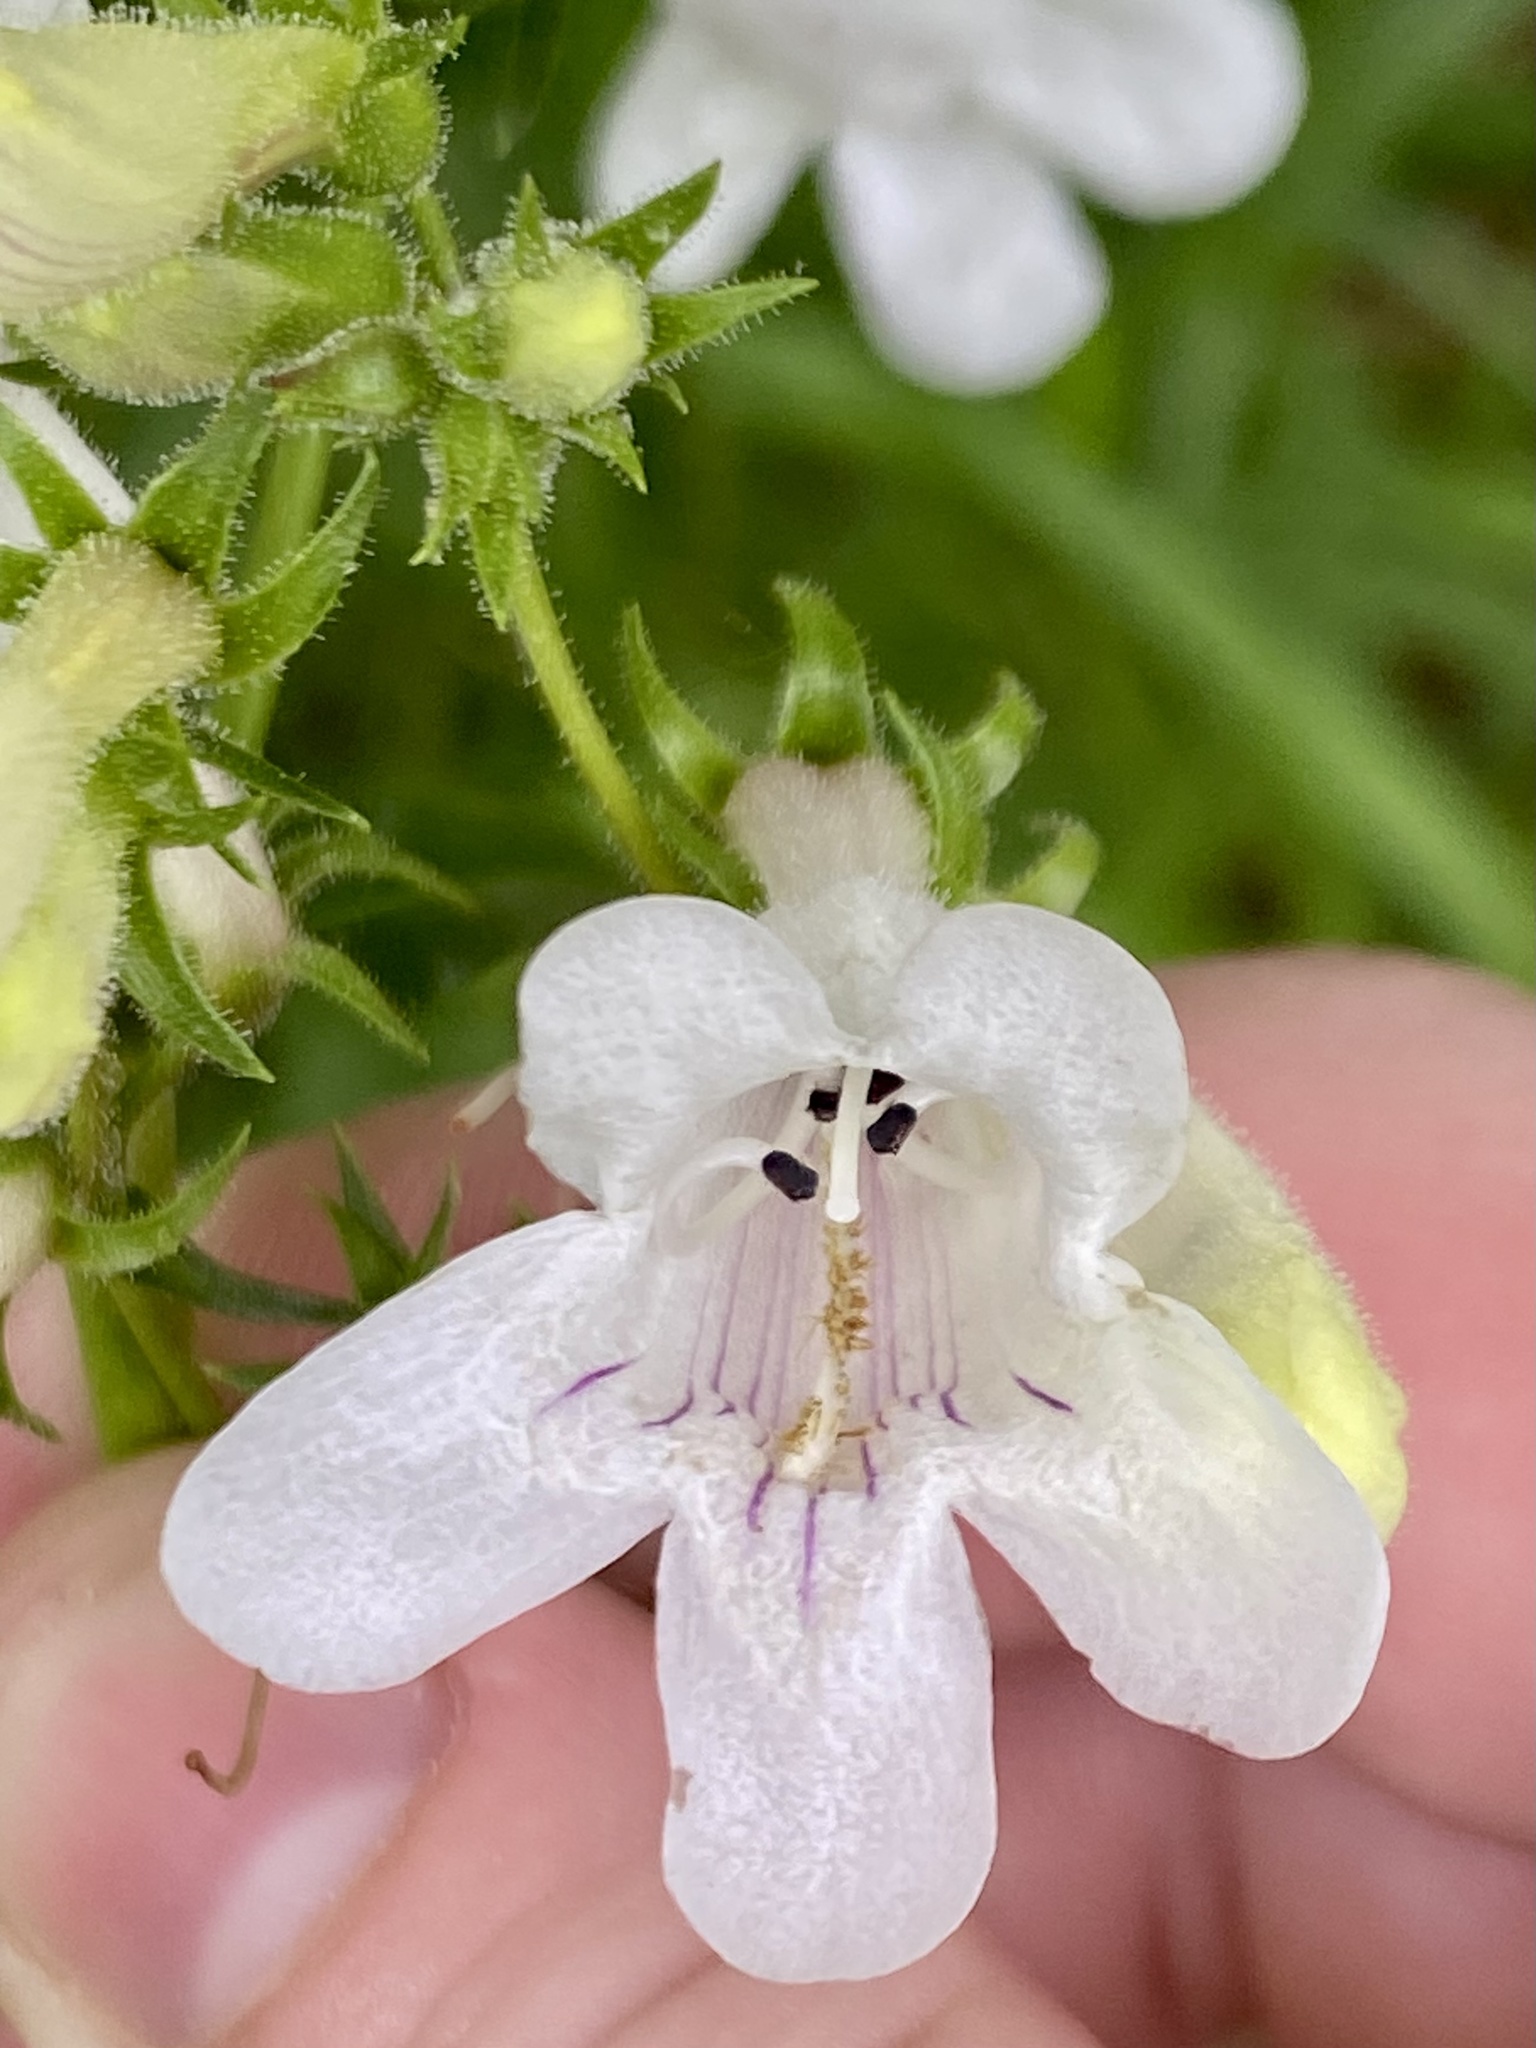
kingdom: Plantae
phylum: Tracheophyta
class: Magnoliopsida
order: Lamiales
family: Plantaginaceae
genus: Penstemon
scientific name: Penstemon digitalis
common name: Foxglove beardtongue
